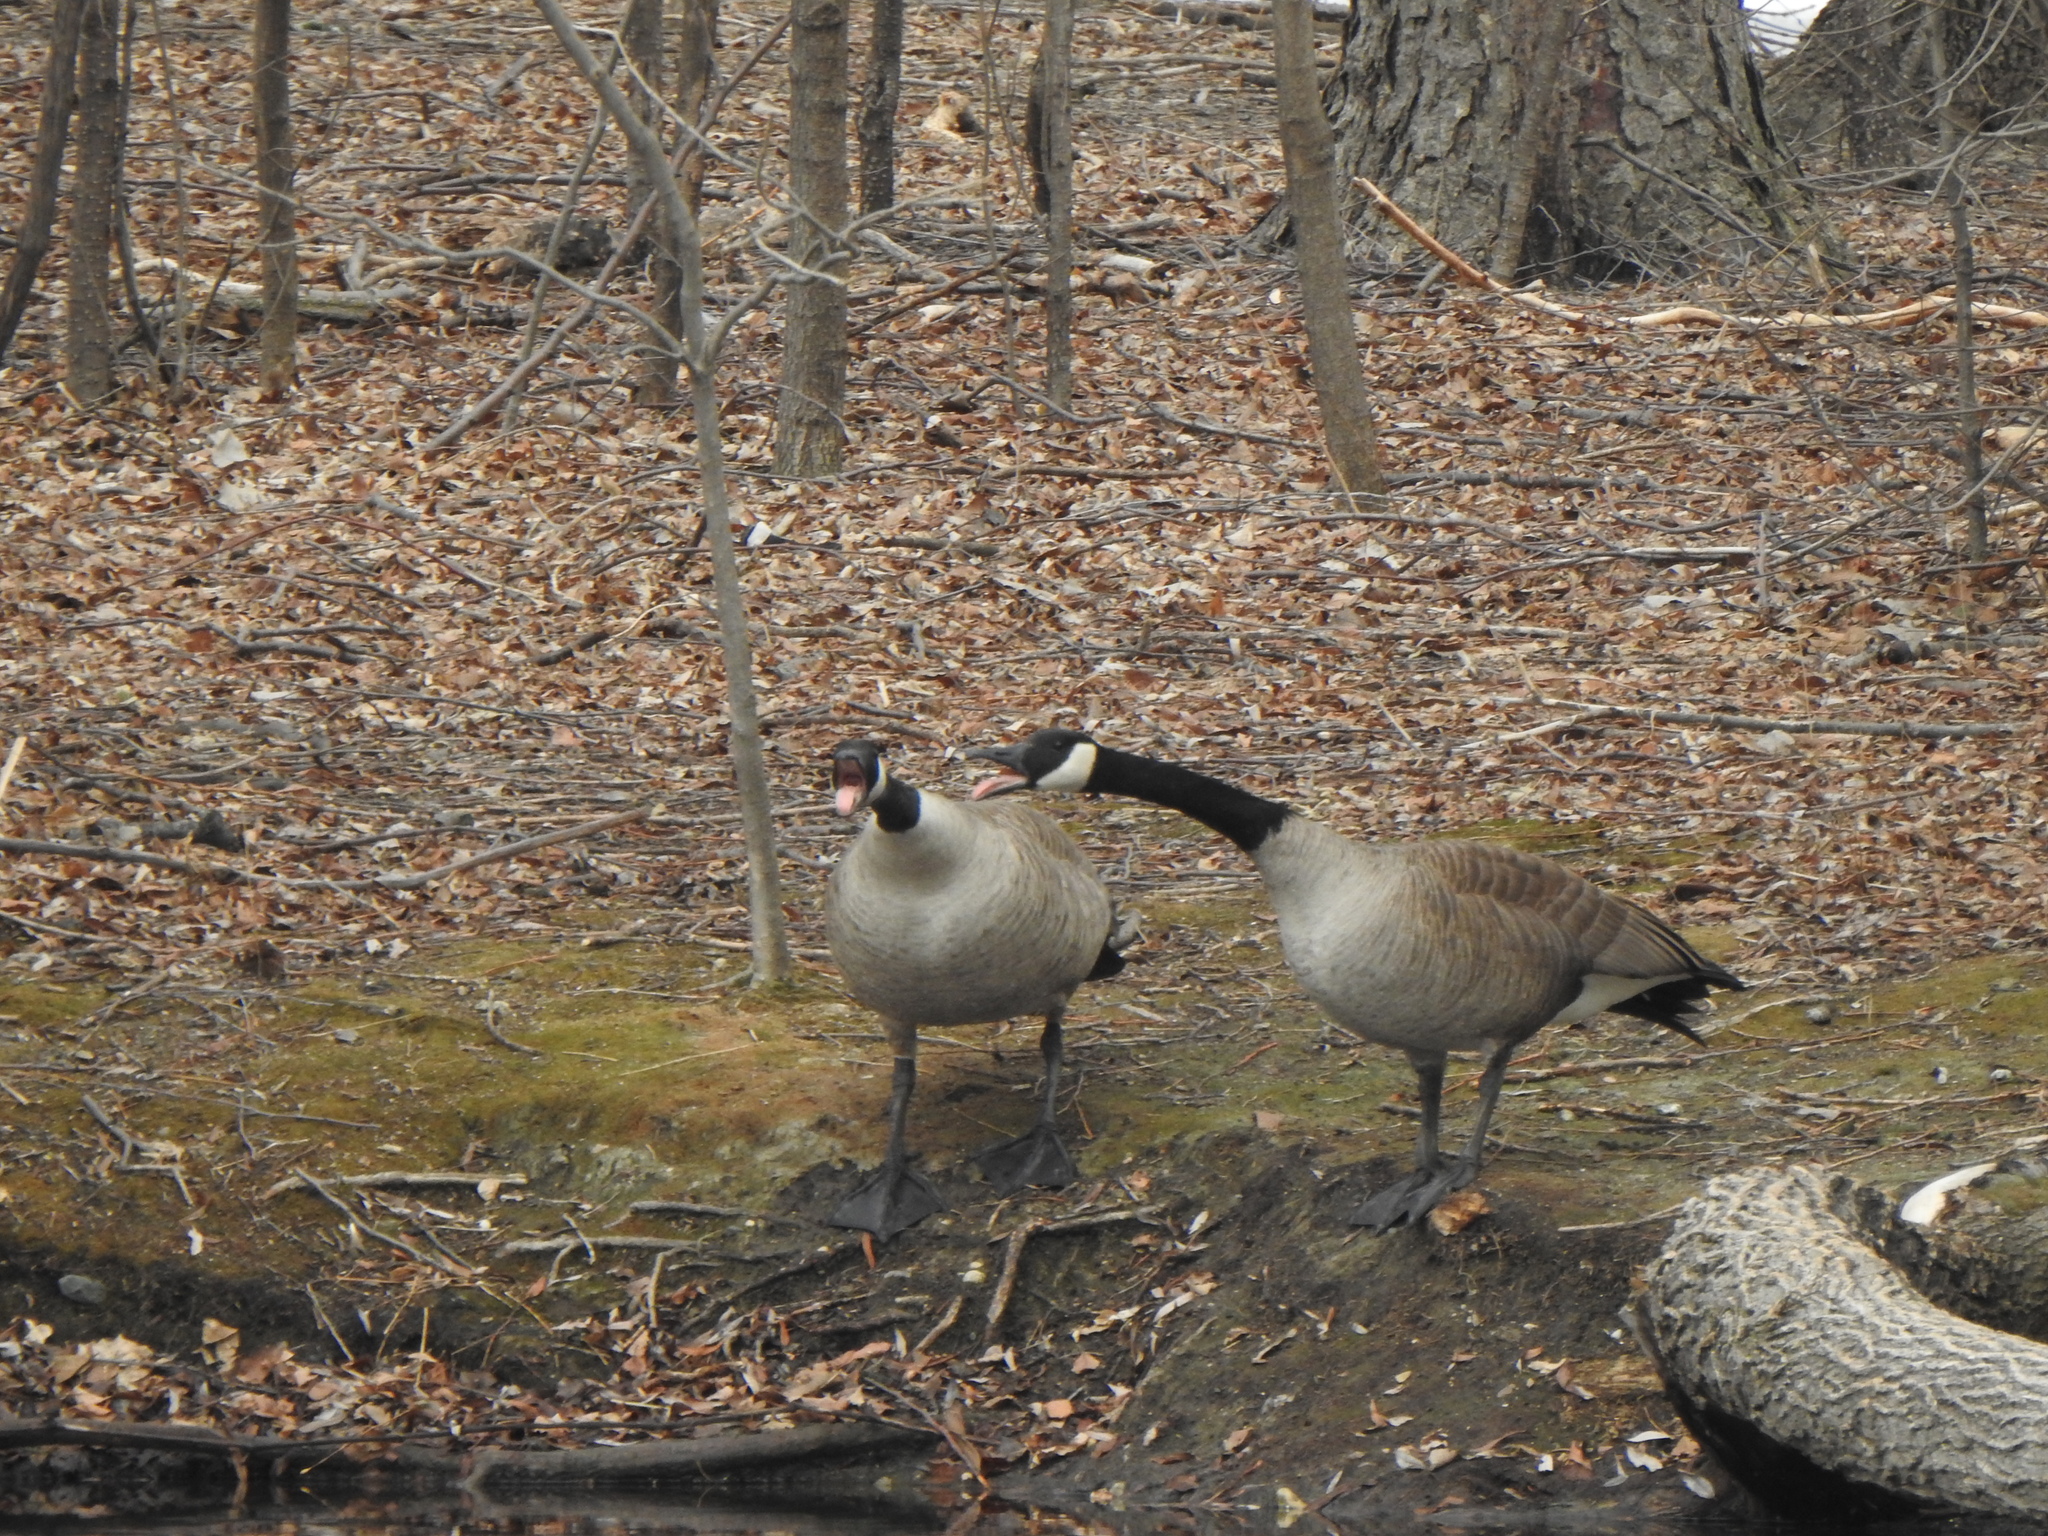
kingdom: Animalia
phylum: Chordata
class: Aves
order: Anseriformes
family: Anatidae
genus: Branta
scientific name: Branta canadensis
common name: Canada goose
